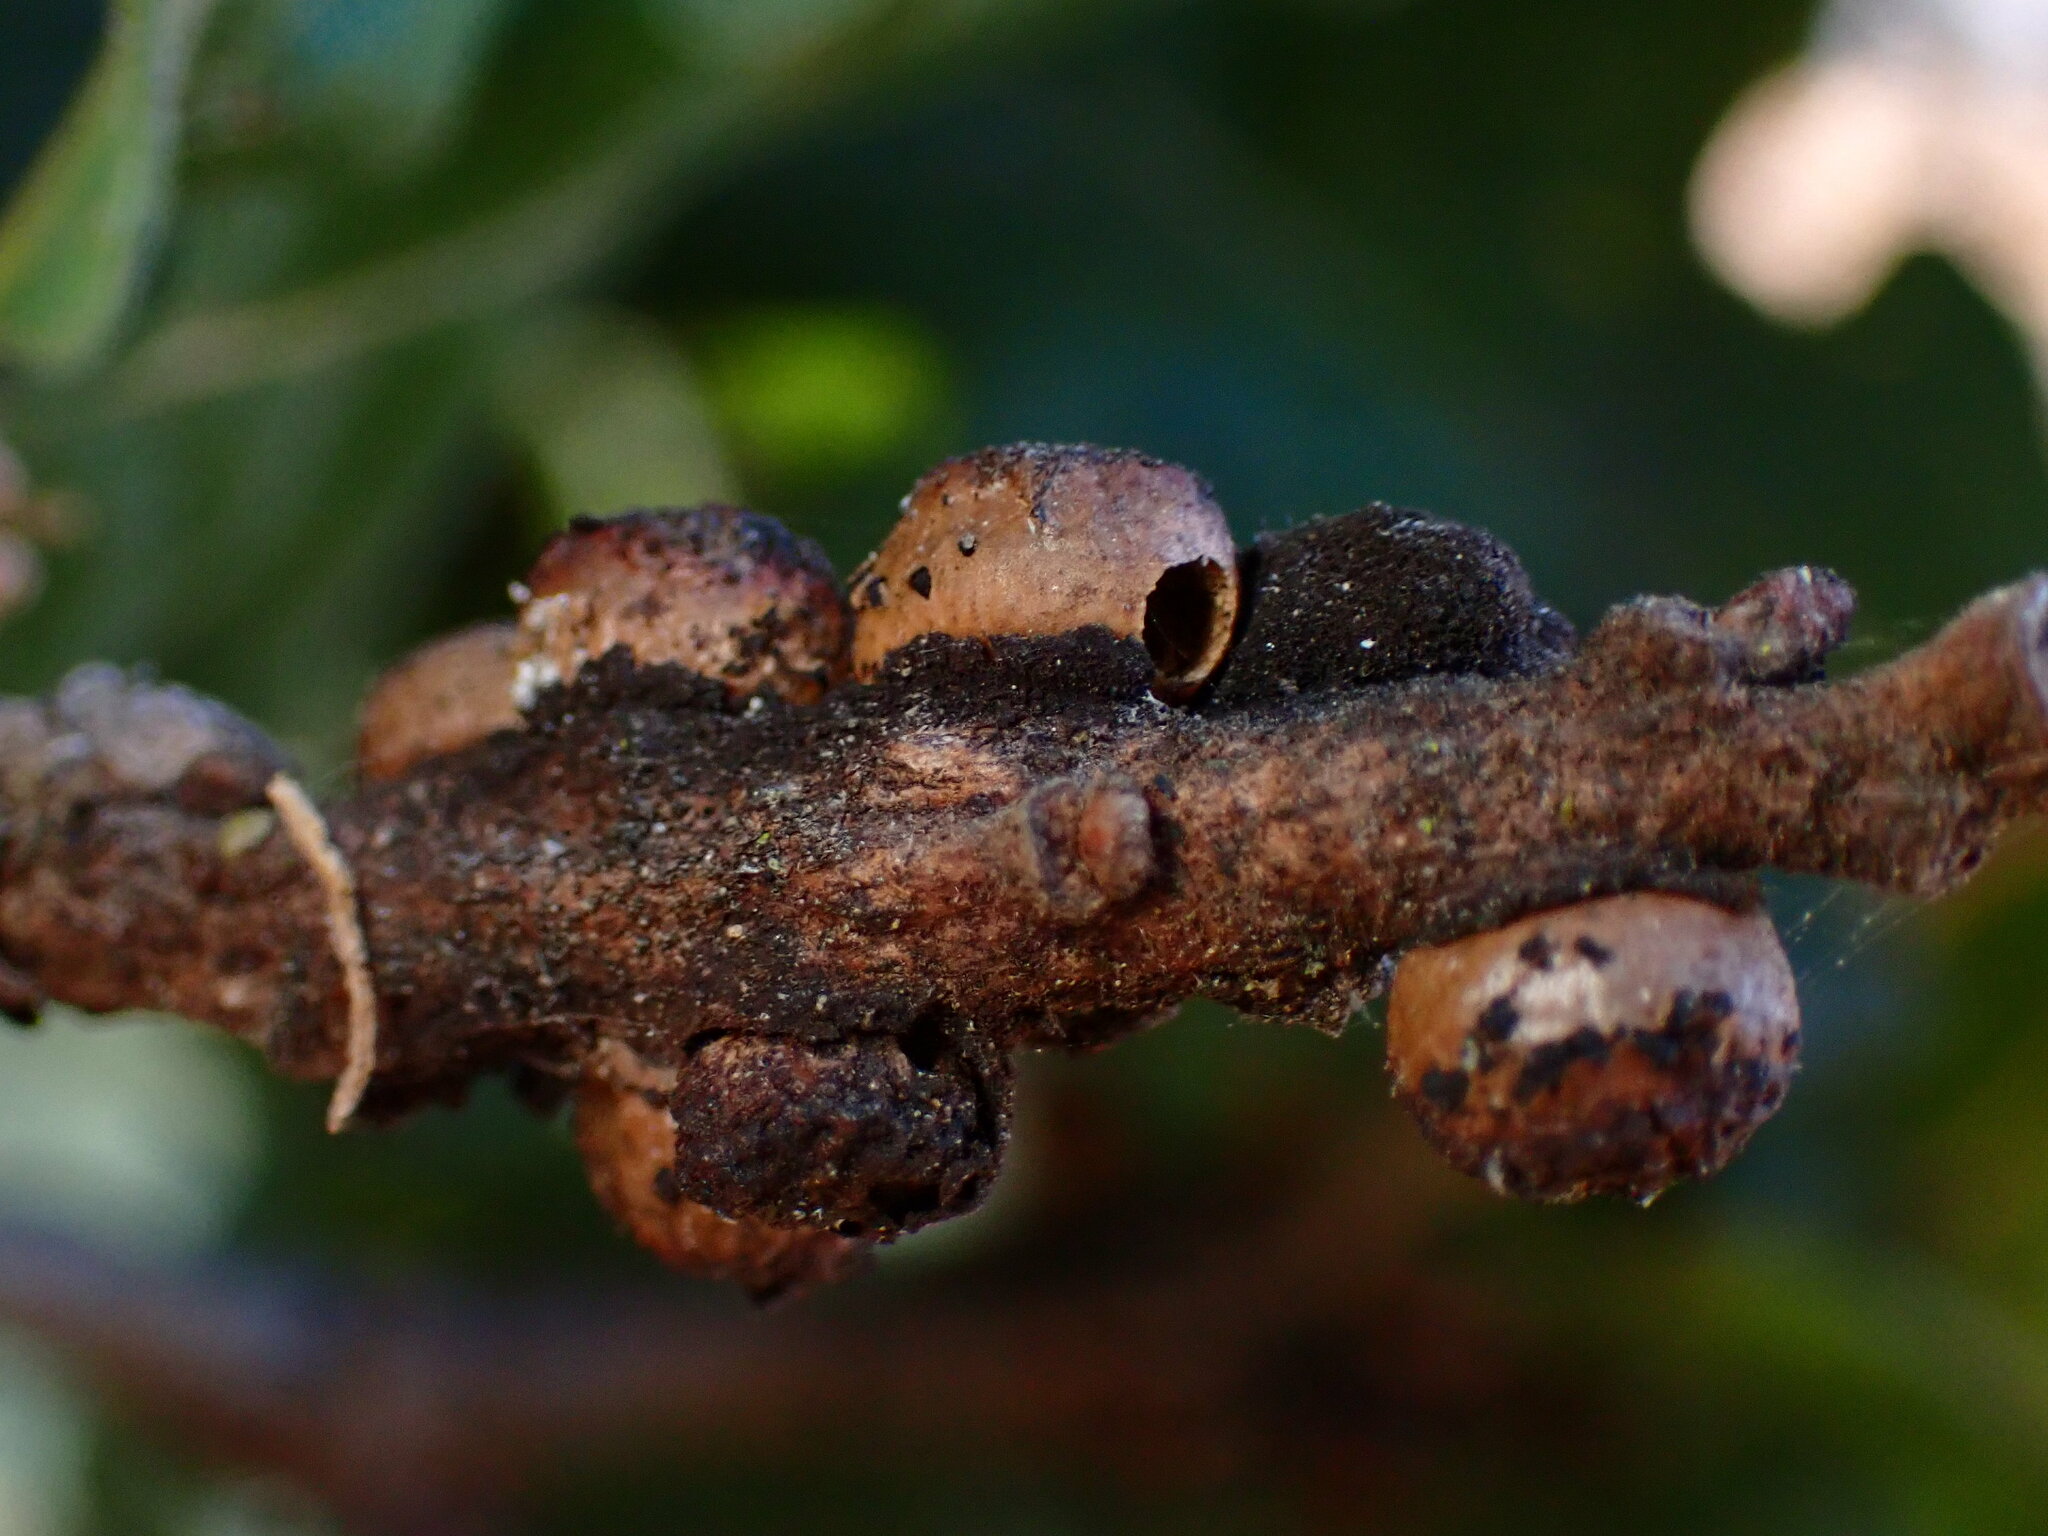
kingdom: Animalia
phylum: Arthropoda
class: Insecta
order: Hymenoptera
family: Cynipidae
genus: Disholcaspis
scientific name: Disholcaspis
